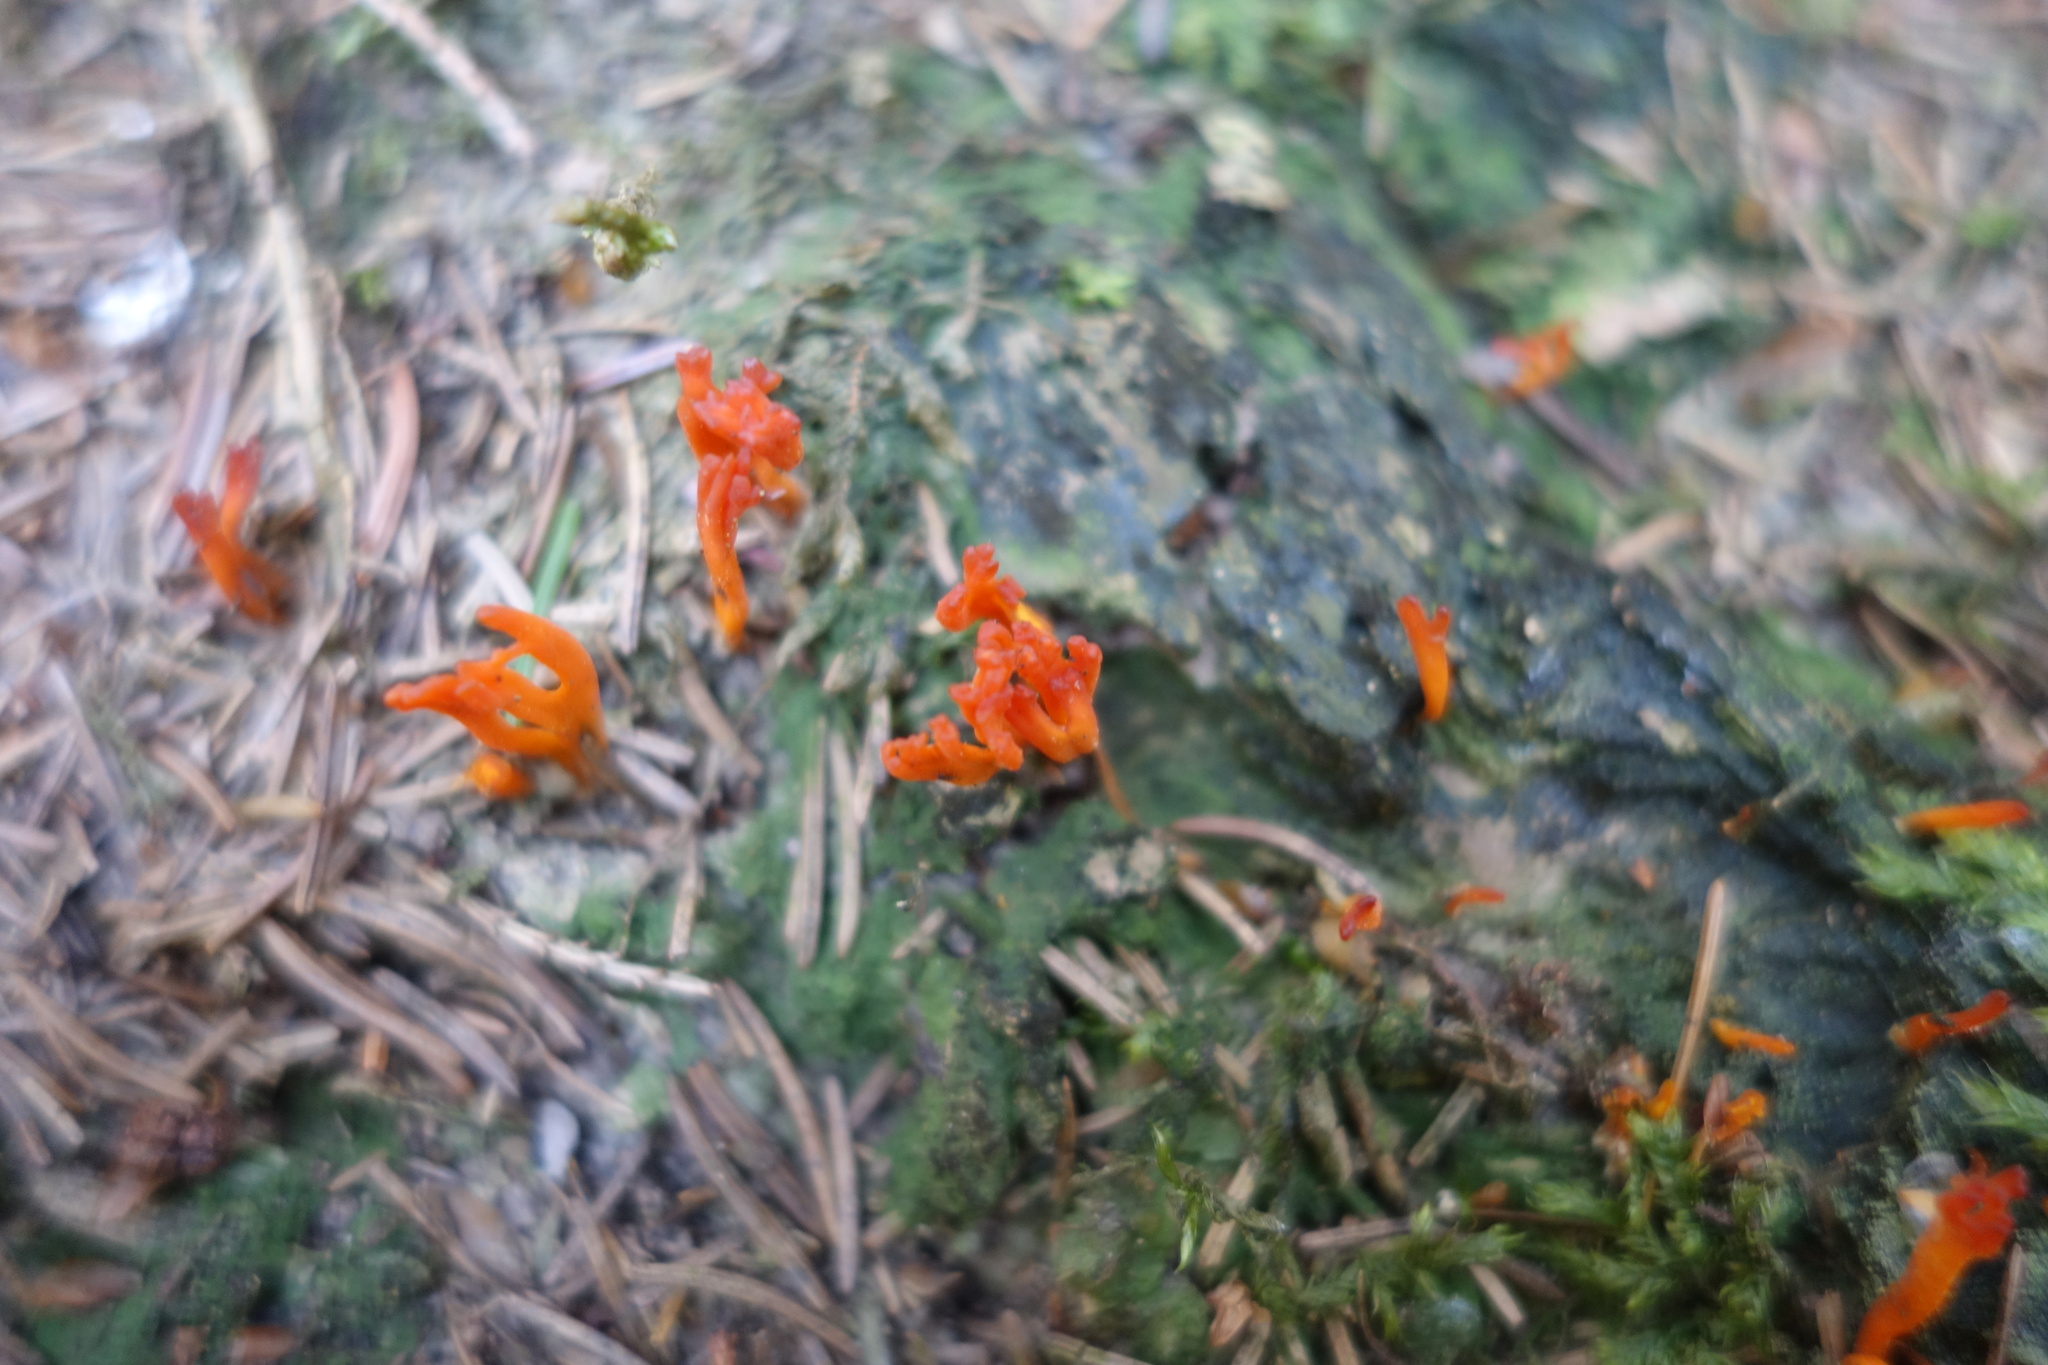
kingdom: Fungi
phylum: Basidiomycota
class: Dacrymycetes
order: Dacrymycetales
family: Dacrymycetaceae
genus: Calocera
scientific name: Calocera viscosa
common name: Yellow stagshorn
